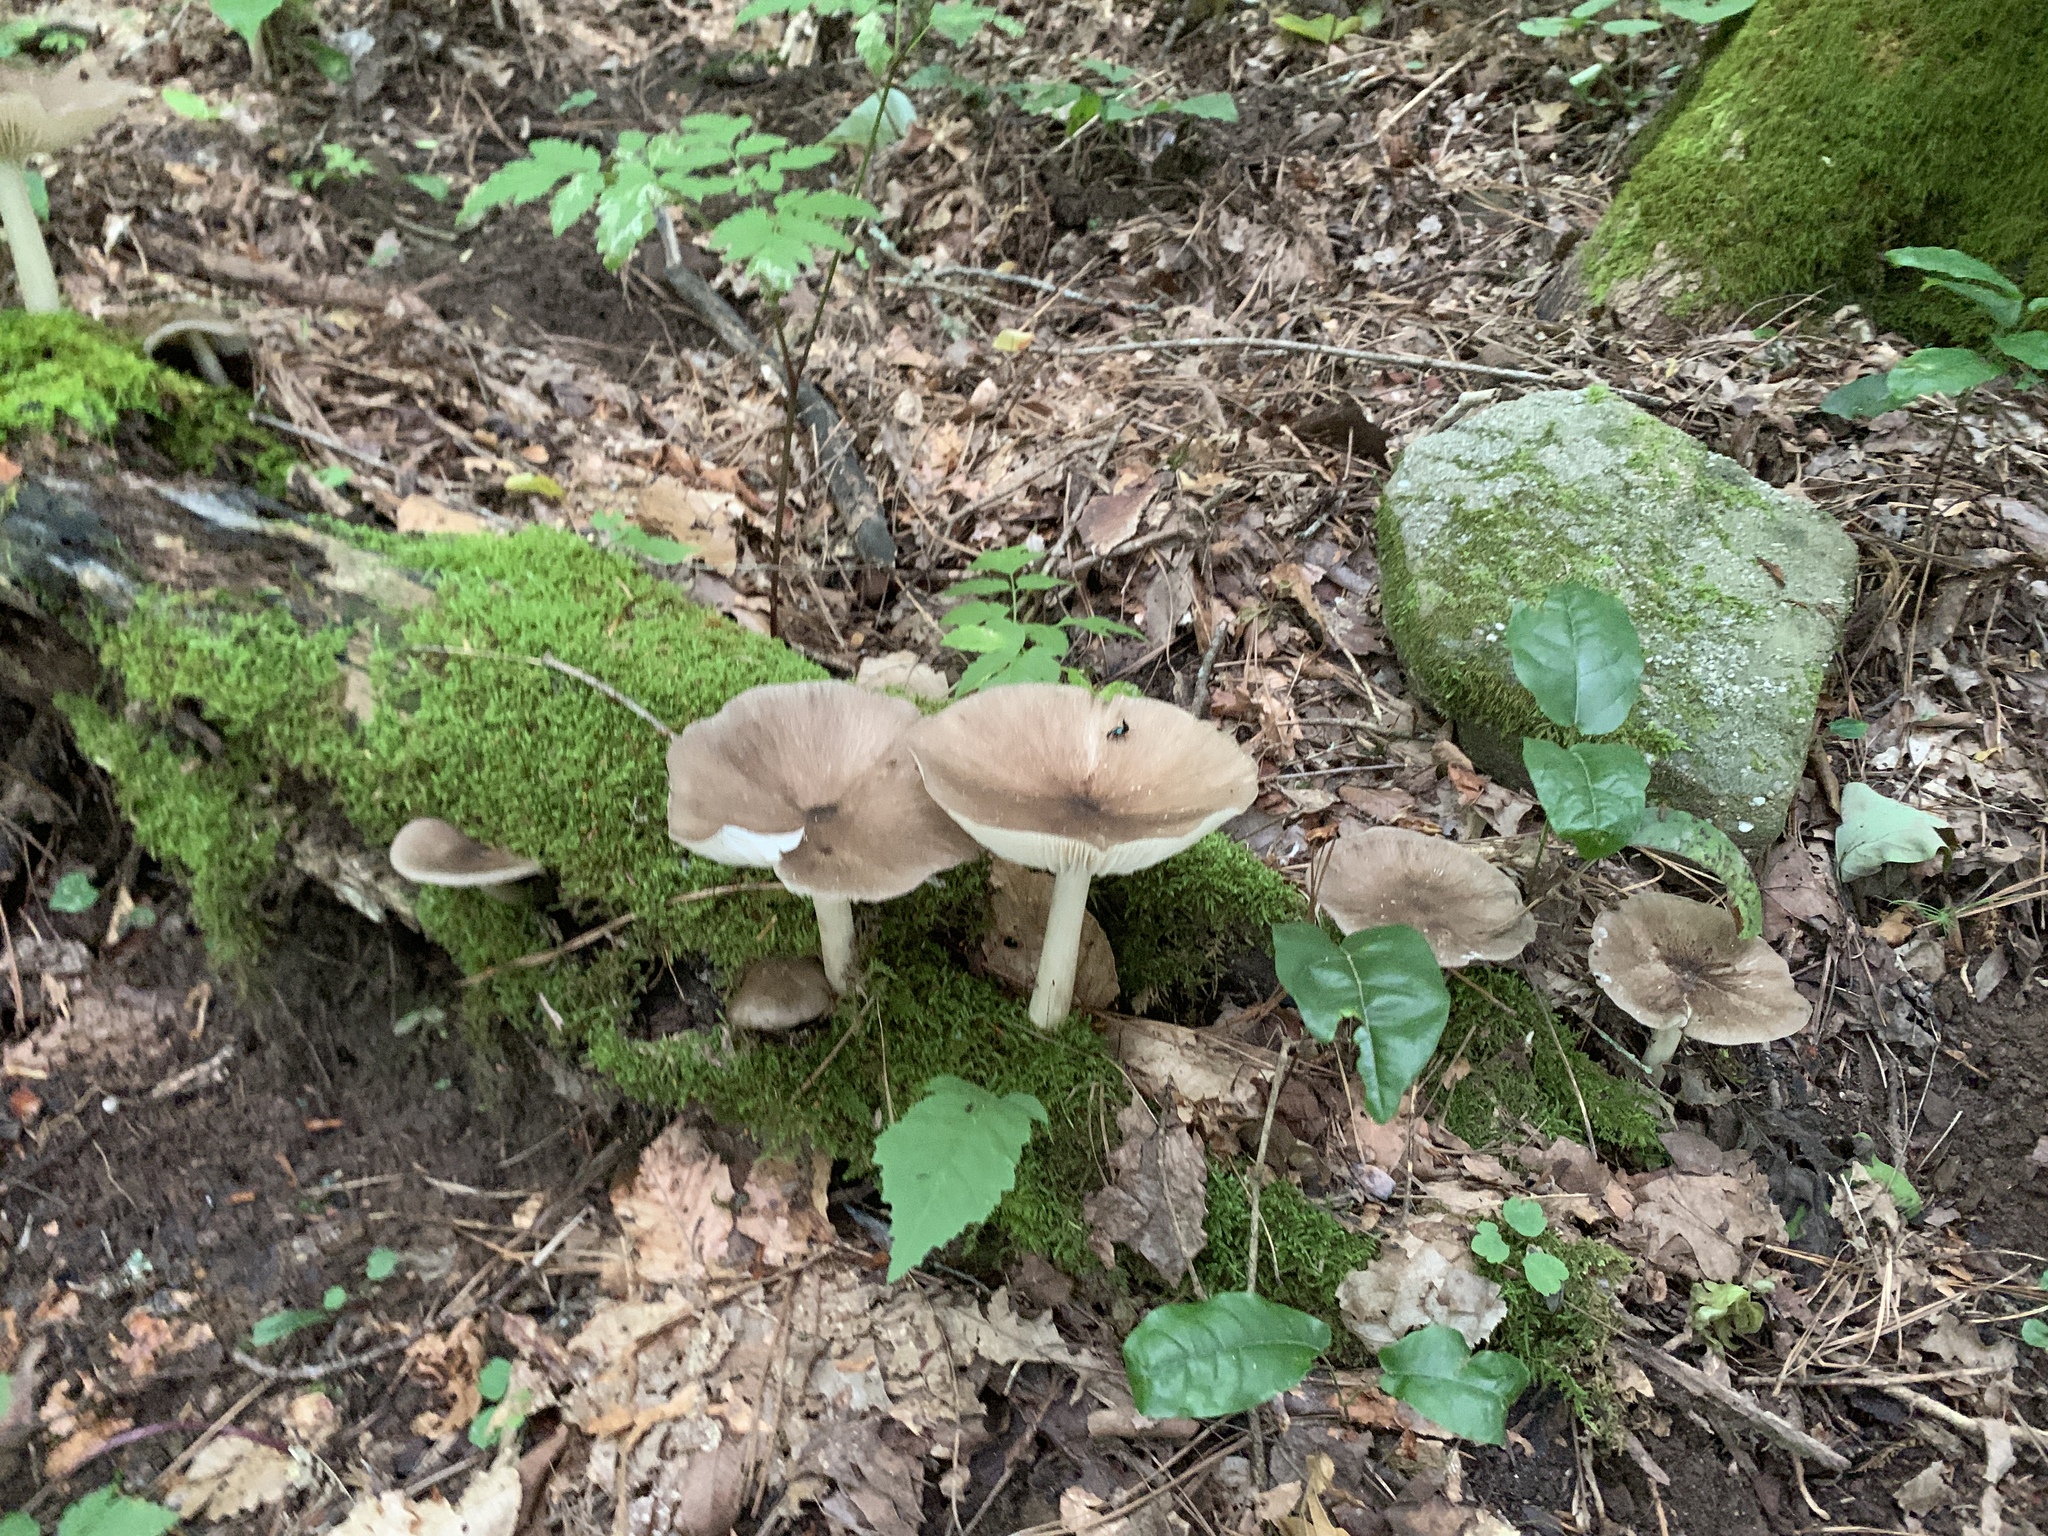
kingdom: Fungi
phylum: Basidiomycota
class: Agaricomycetes
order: Agaricales
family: Tricholomataceae
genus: Megacollybia
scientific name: Megacollybia rodmanii
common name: Eastern american platterful mushroom
